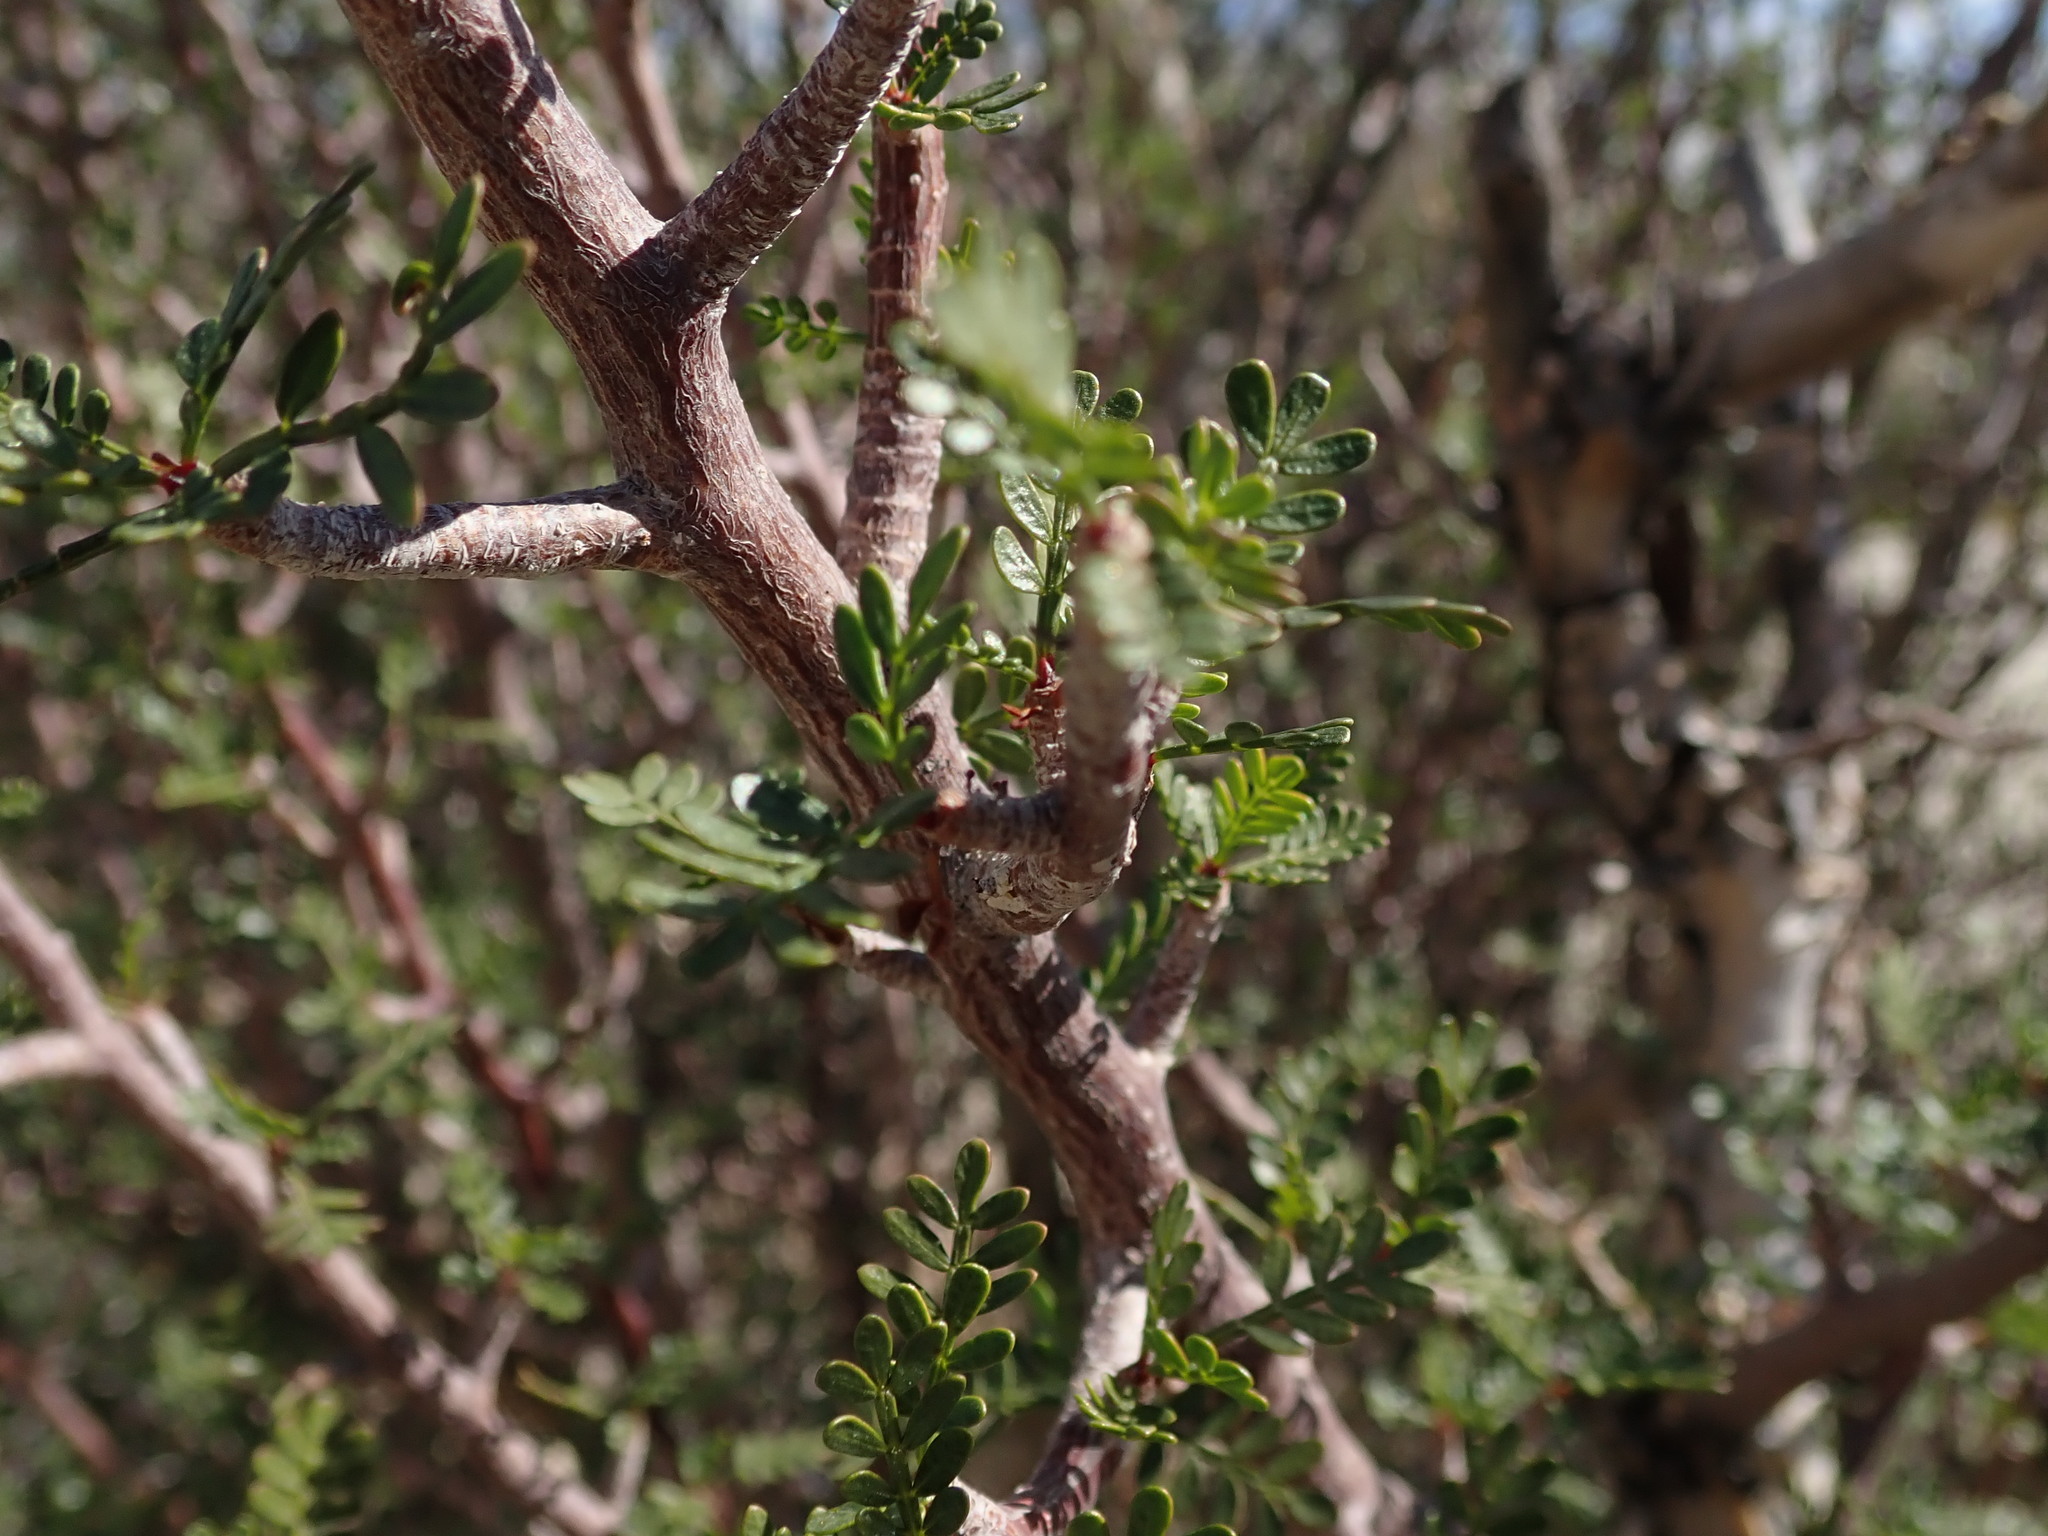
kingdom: Plantae
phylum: Tracheophyta
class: Magnoliopsida
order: Sapindales
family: Burseraceae
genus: Bursera
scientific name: Bursera microphylla
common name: Elephant tree
